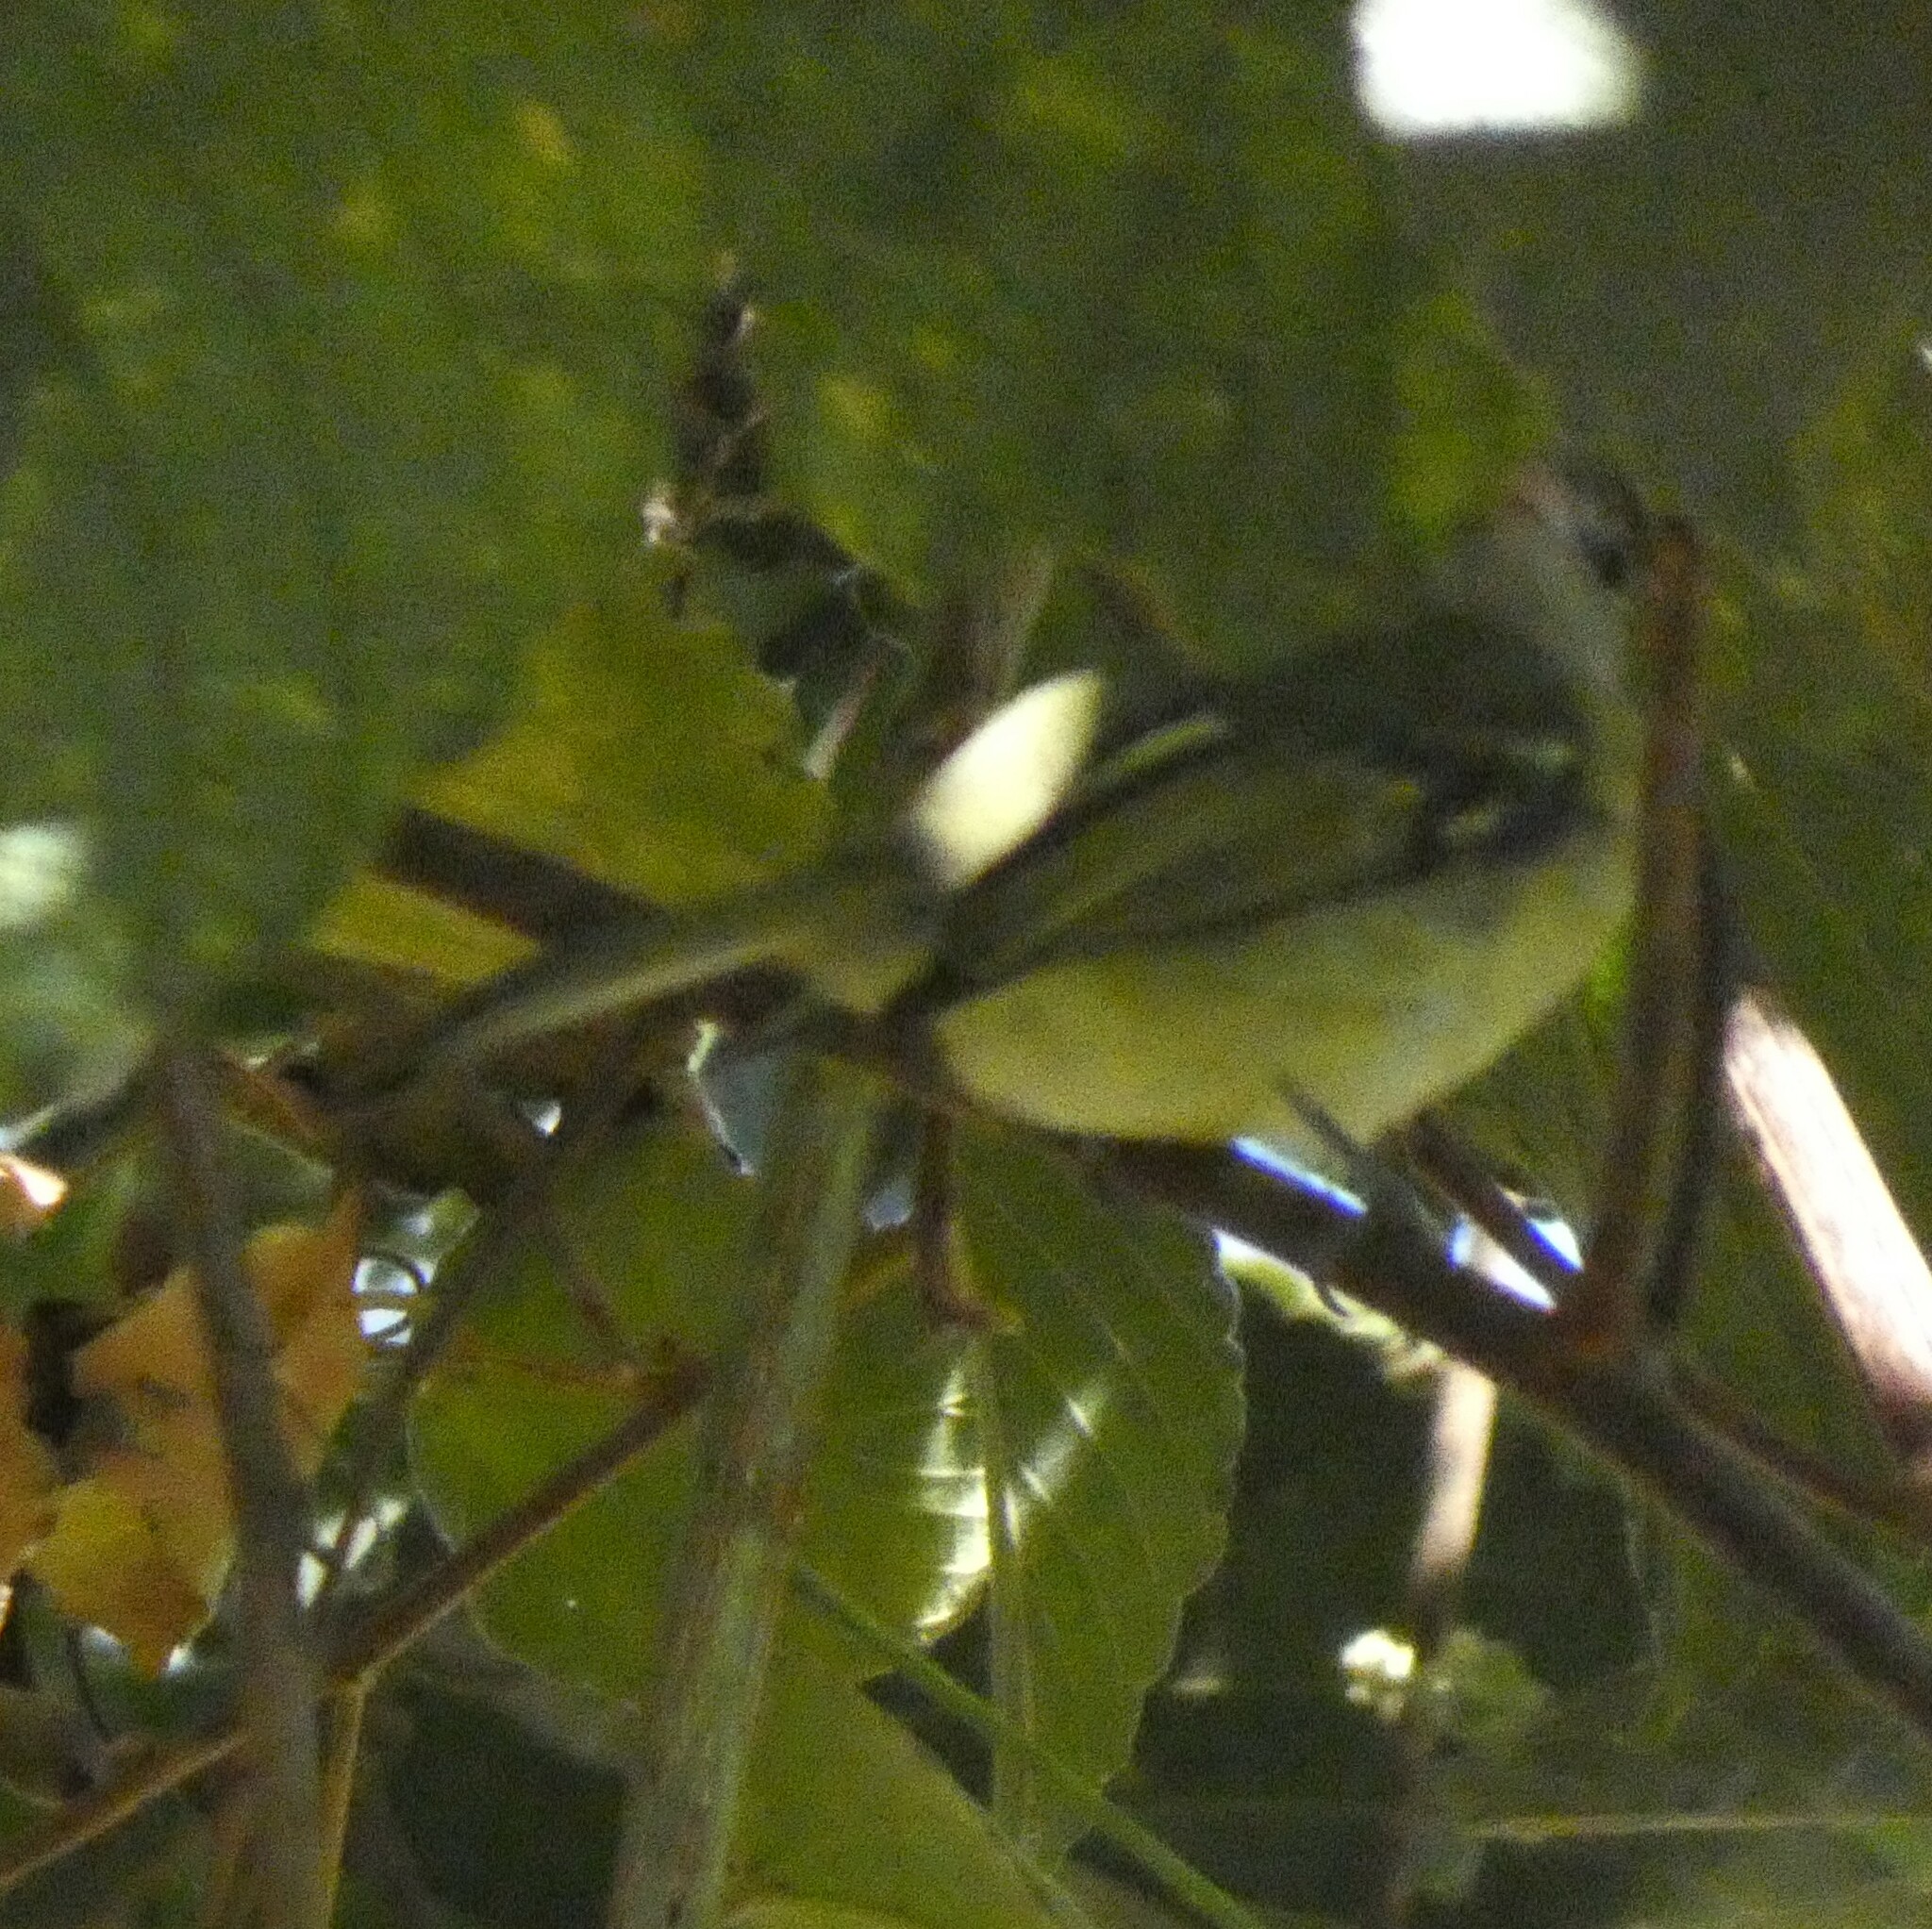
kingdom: Animalia
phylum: Chordata
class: Aves
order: Passeriformes
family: Tyrannidae
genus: Tolmomyias
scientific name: Tolmomyias sulphurescens
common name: Yellow-olive flycatcher
